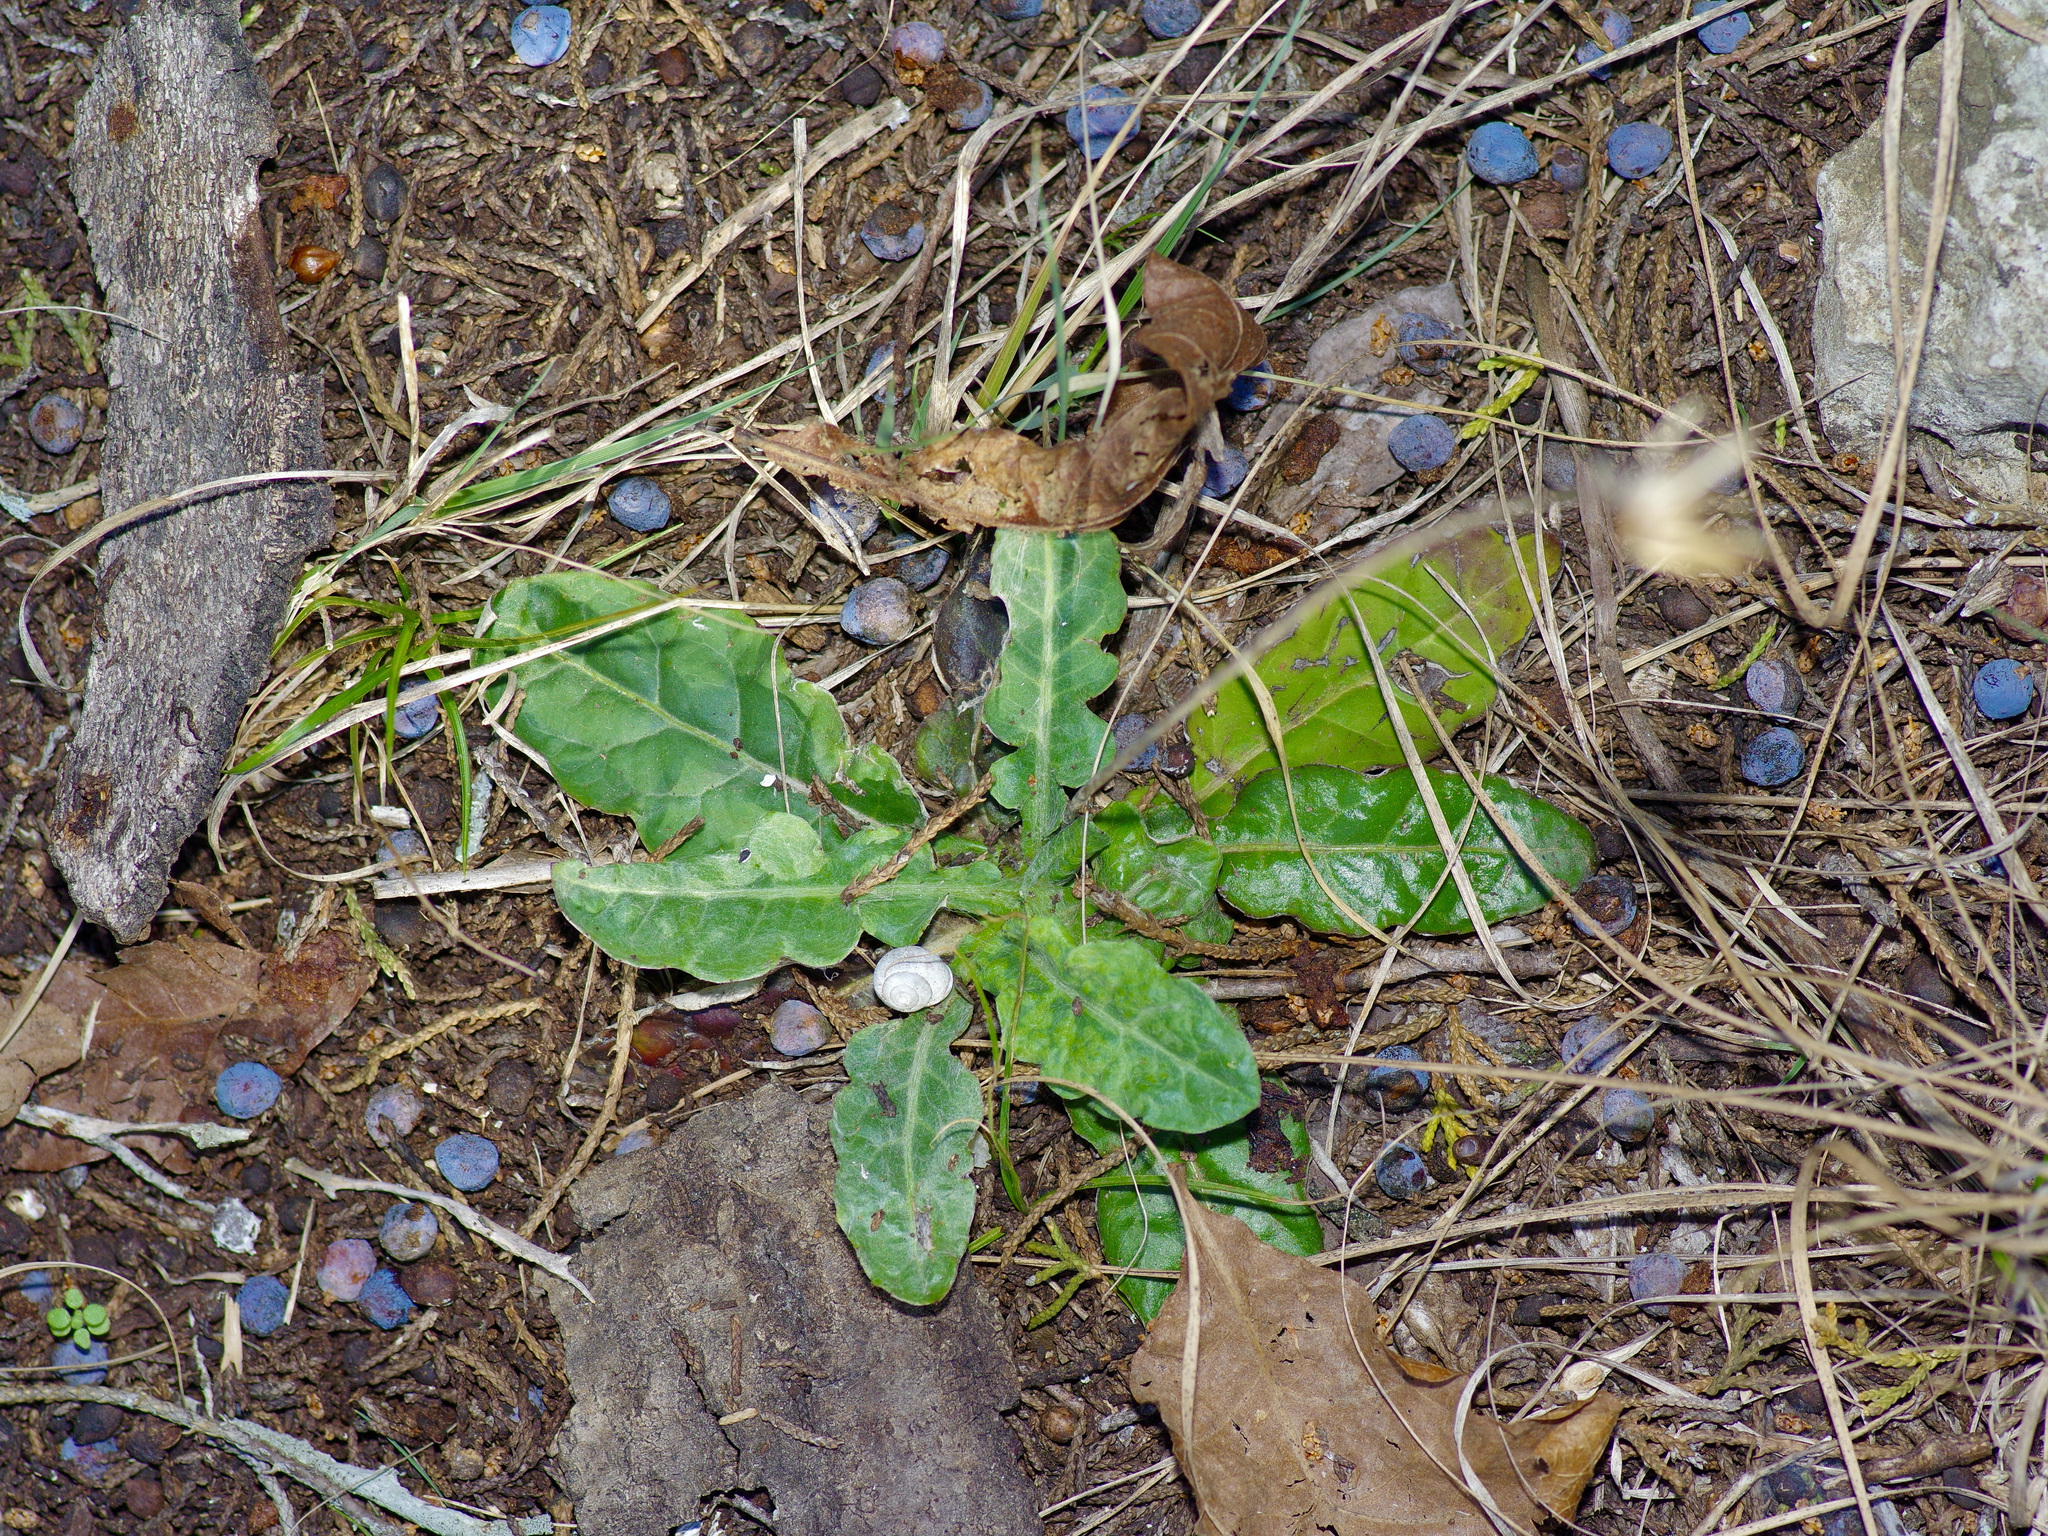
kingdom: Plantae
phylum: Tracheophyta
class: Magnoliopsida
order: Asterales
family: Asteraceae
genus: Chaptalia
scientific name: Chaptalia texana
